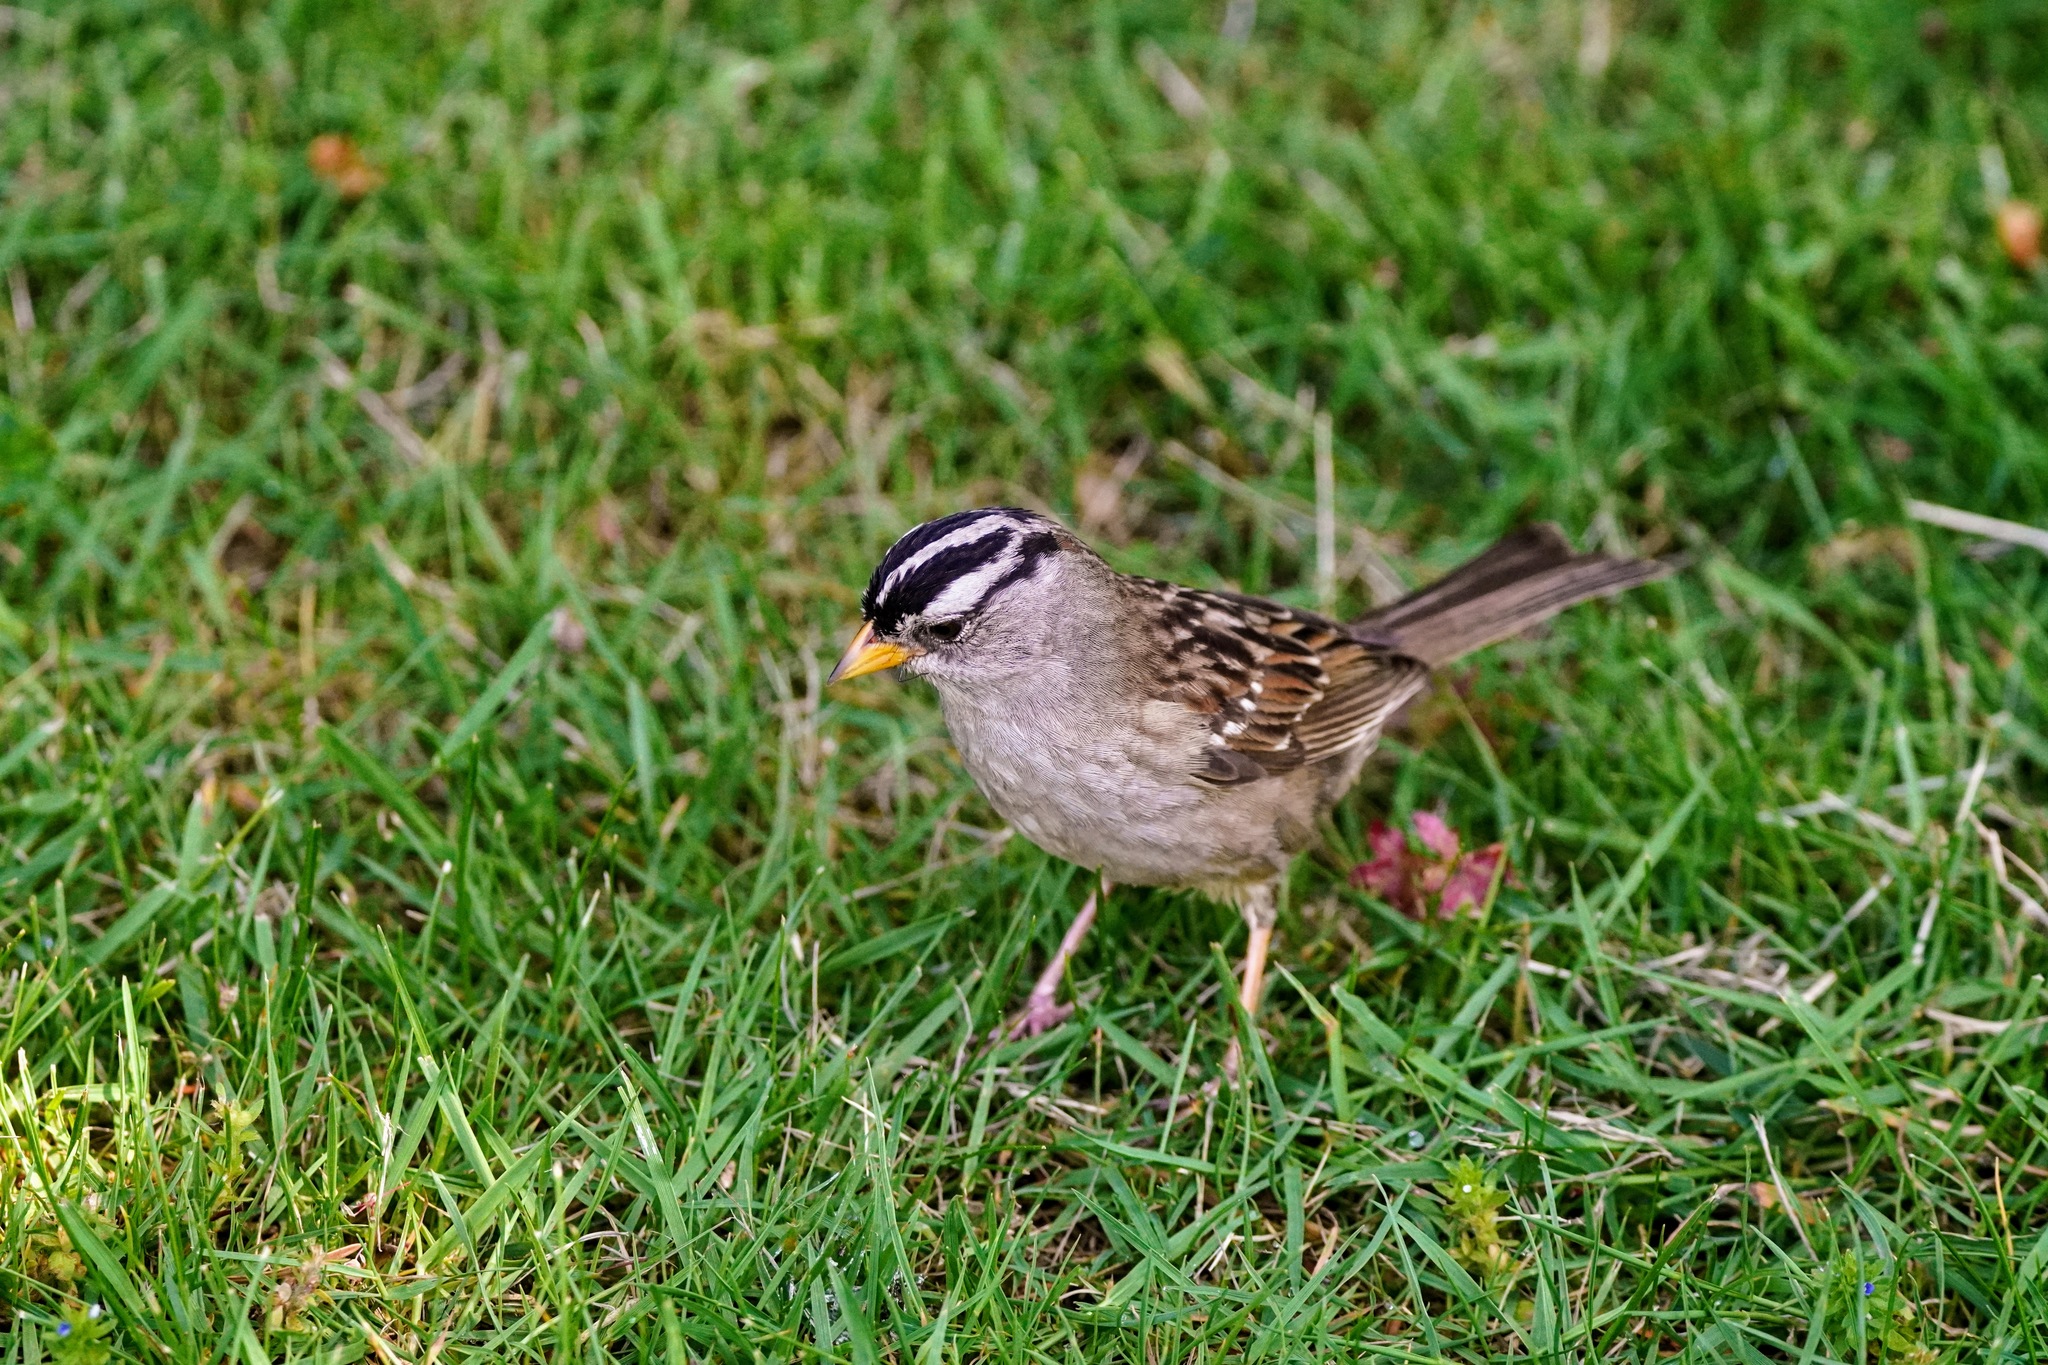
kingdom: Animalia
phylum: Chordata
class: Aves
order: Passeriformes
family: Passerellidae
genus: Zonotrichia
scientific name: Zonotrichia leucophrys
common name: White-crowned sparrow
